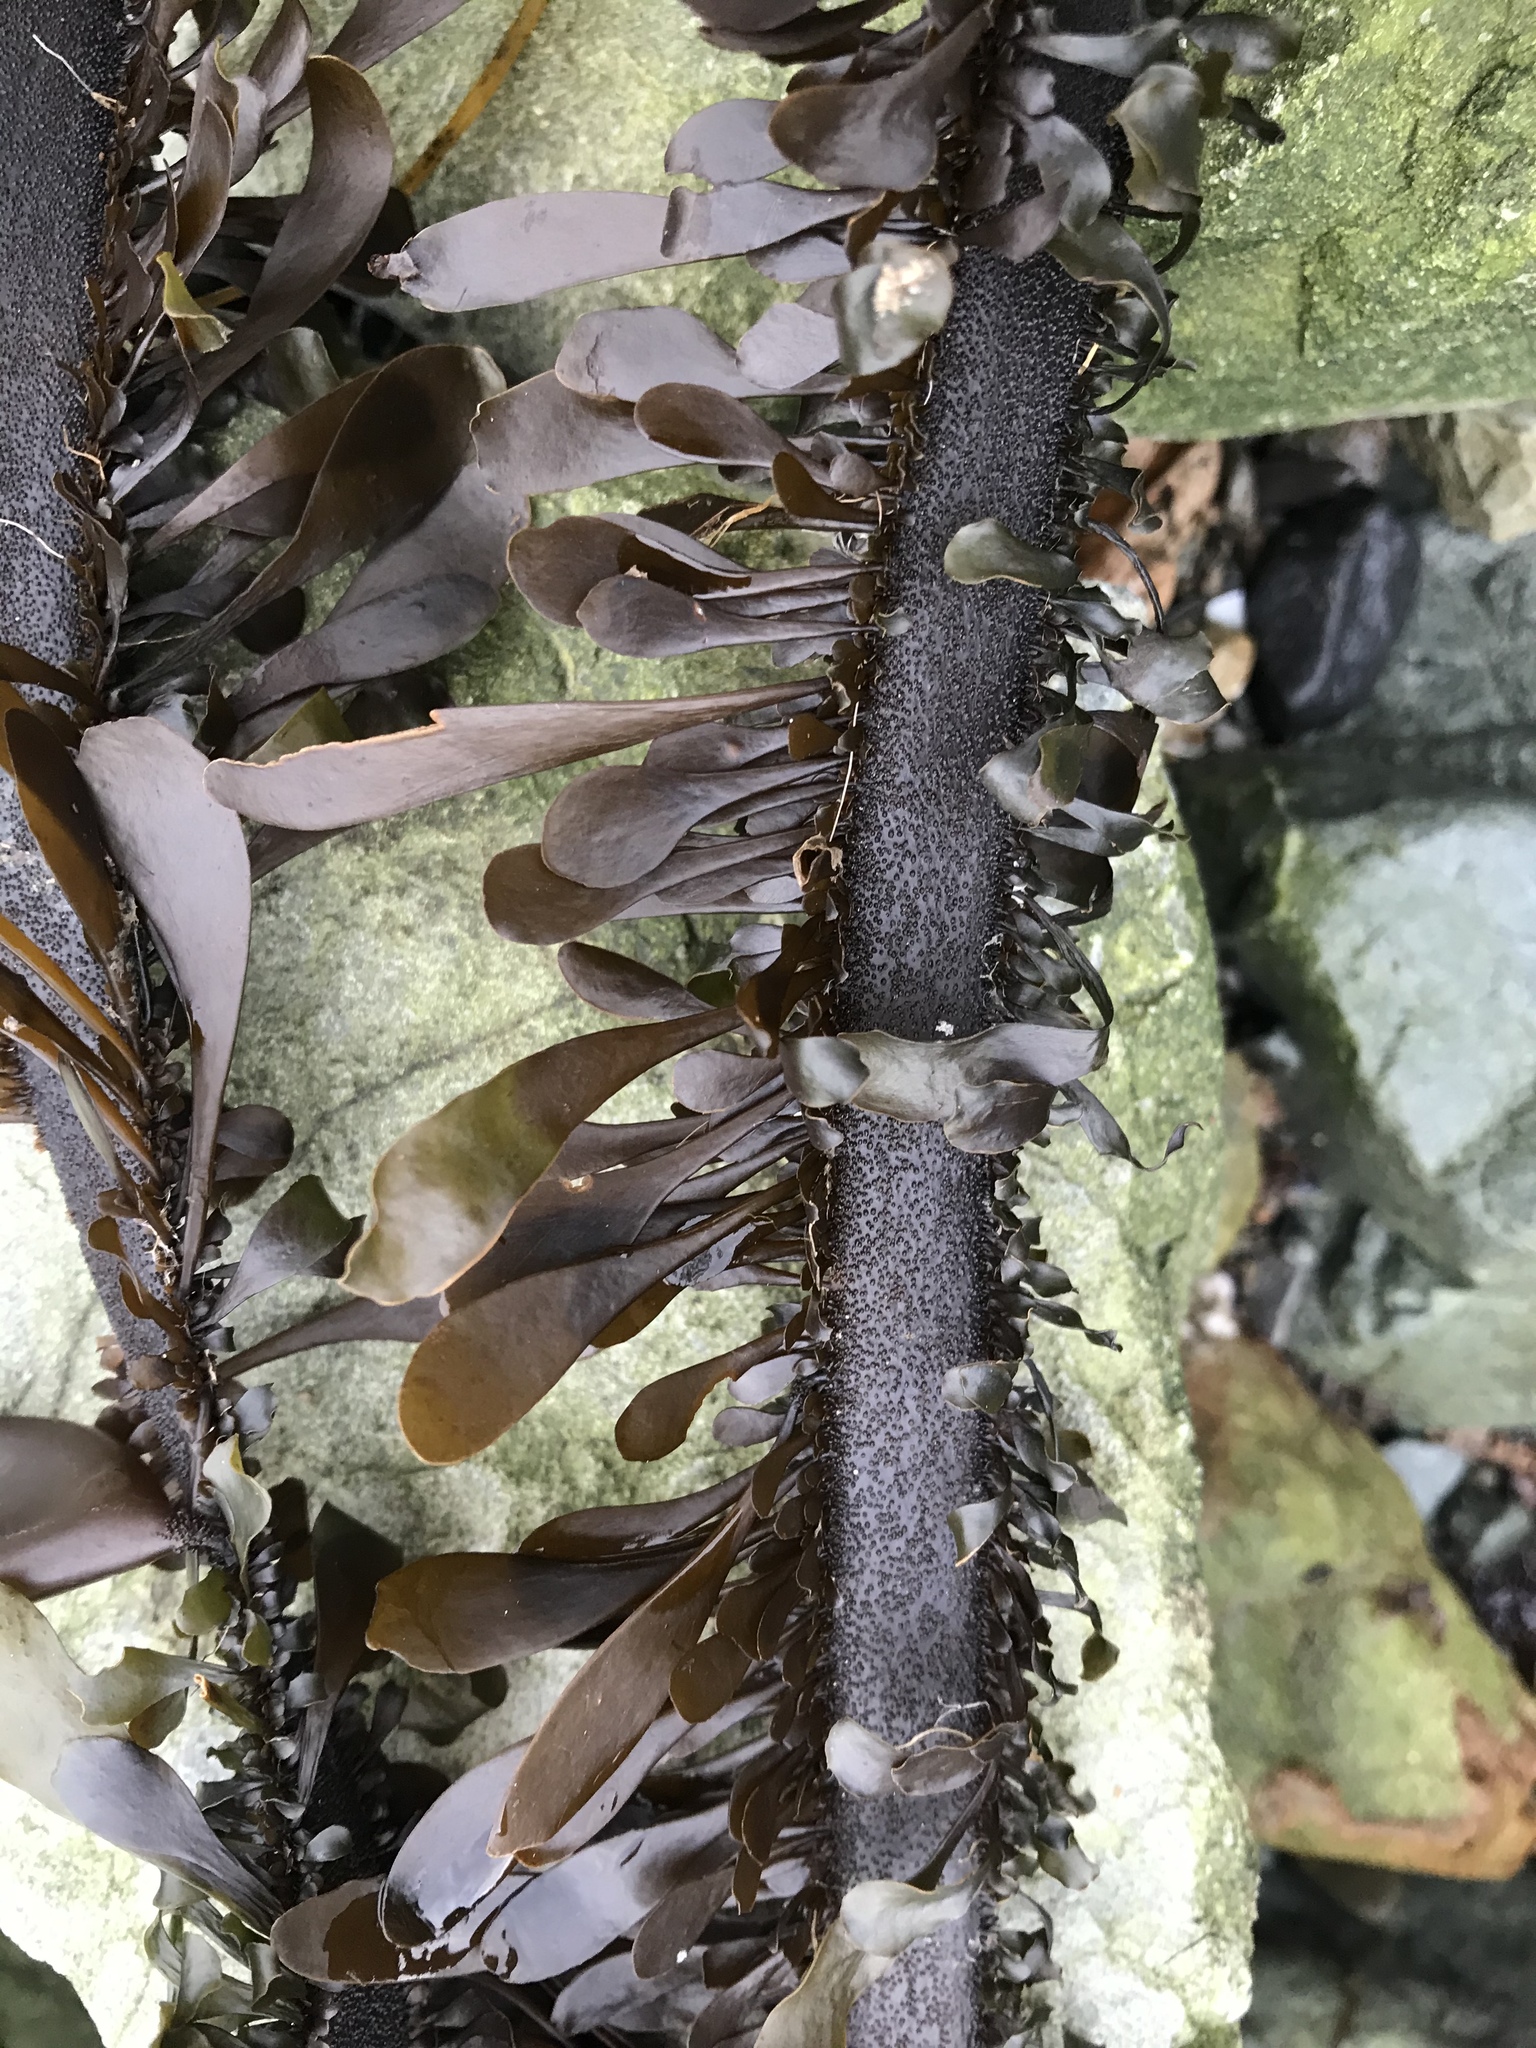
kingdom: Chromista
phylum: Ochrophyta
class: Phaeophyceae
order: Laminariales
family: Lessoniaceae
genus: Egregia
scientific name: Egregia menziesii
